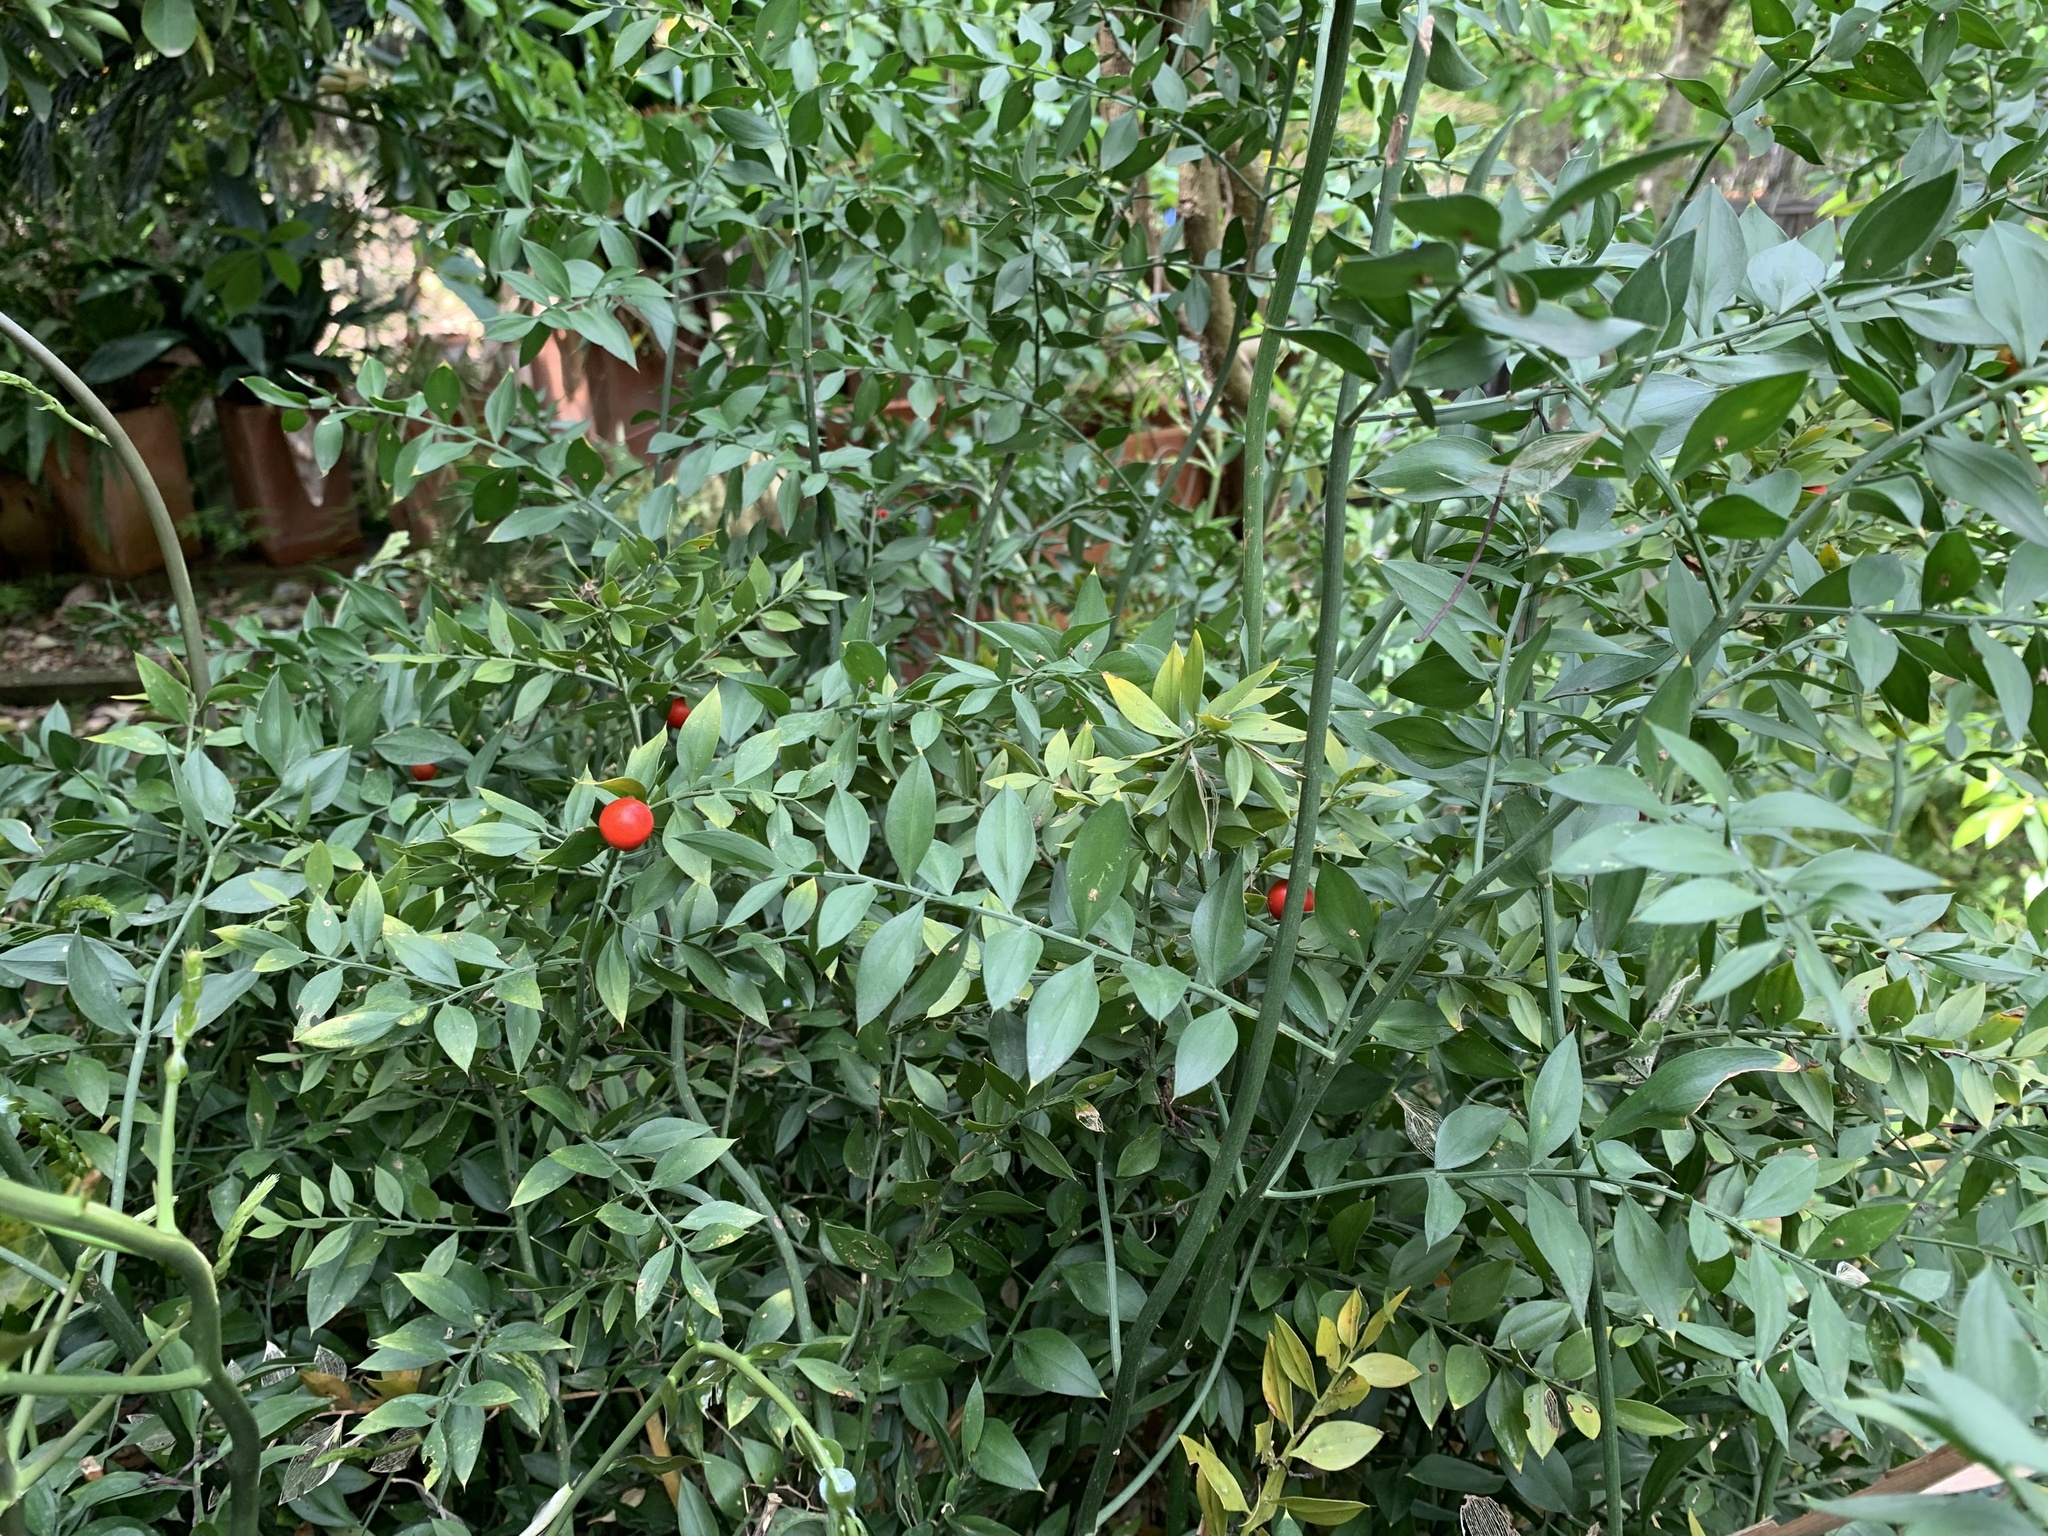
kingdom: Plantae
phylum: Tracheophyta
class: Liliopsida
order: Asparagales
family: Asparagaceae
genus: Ruscus
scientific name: Ruscus aculeatus
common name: Butcher's-broom
